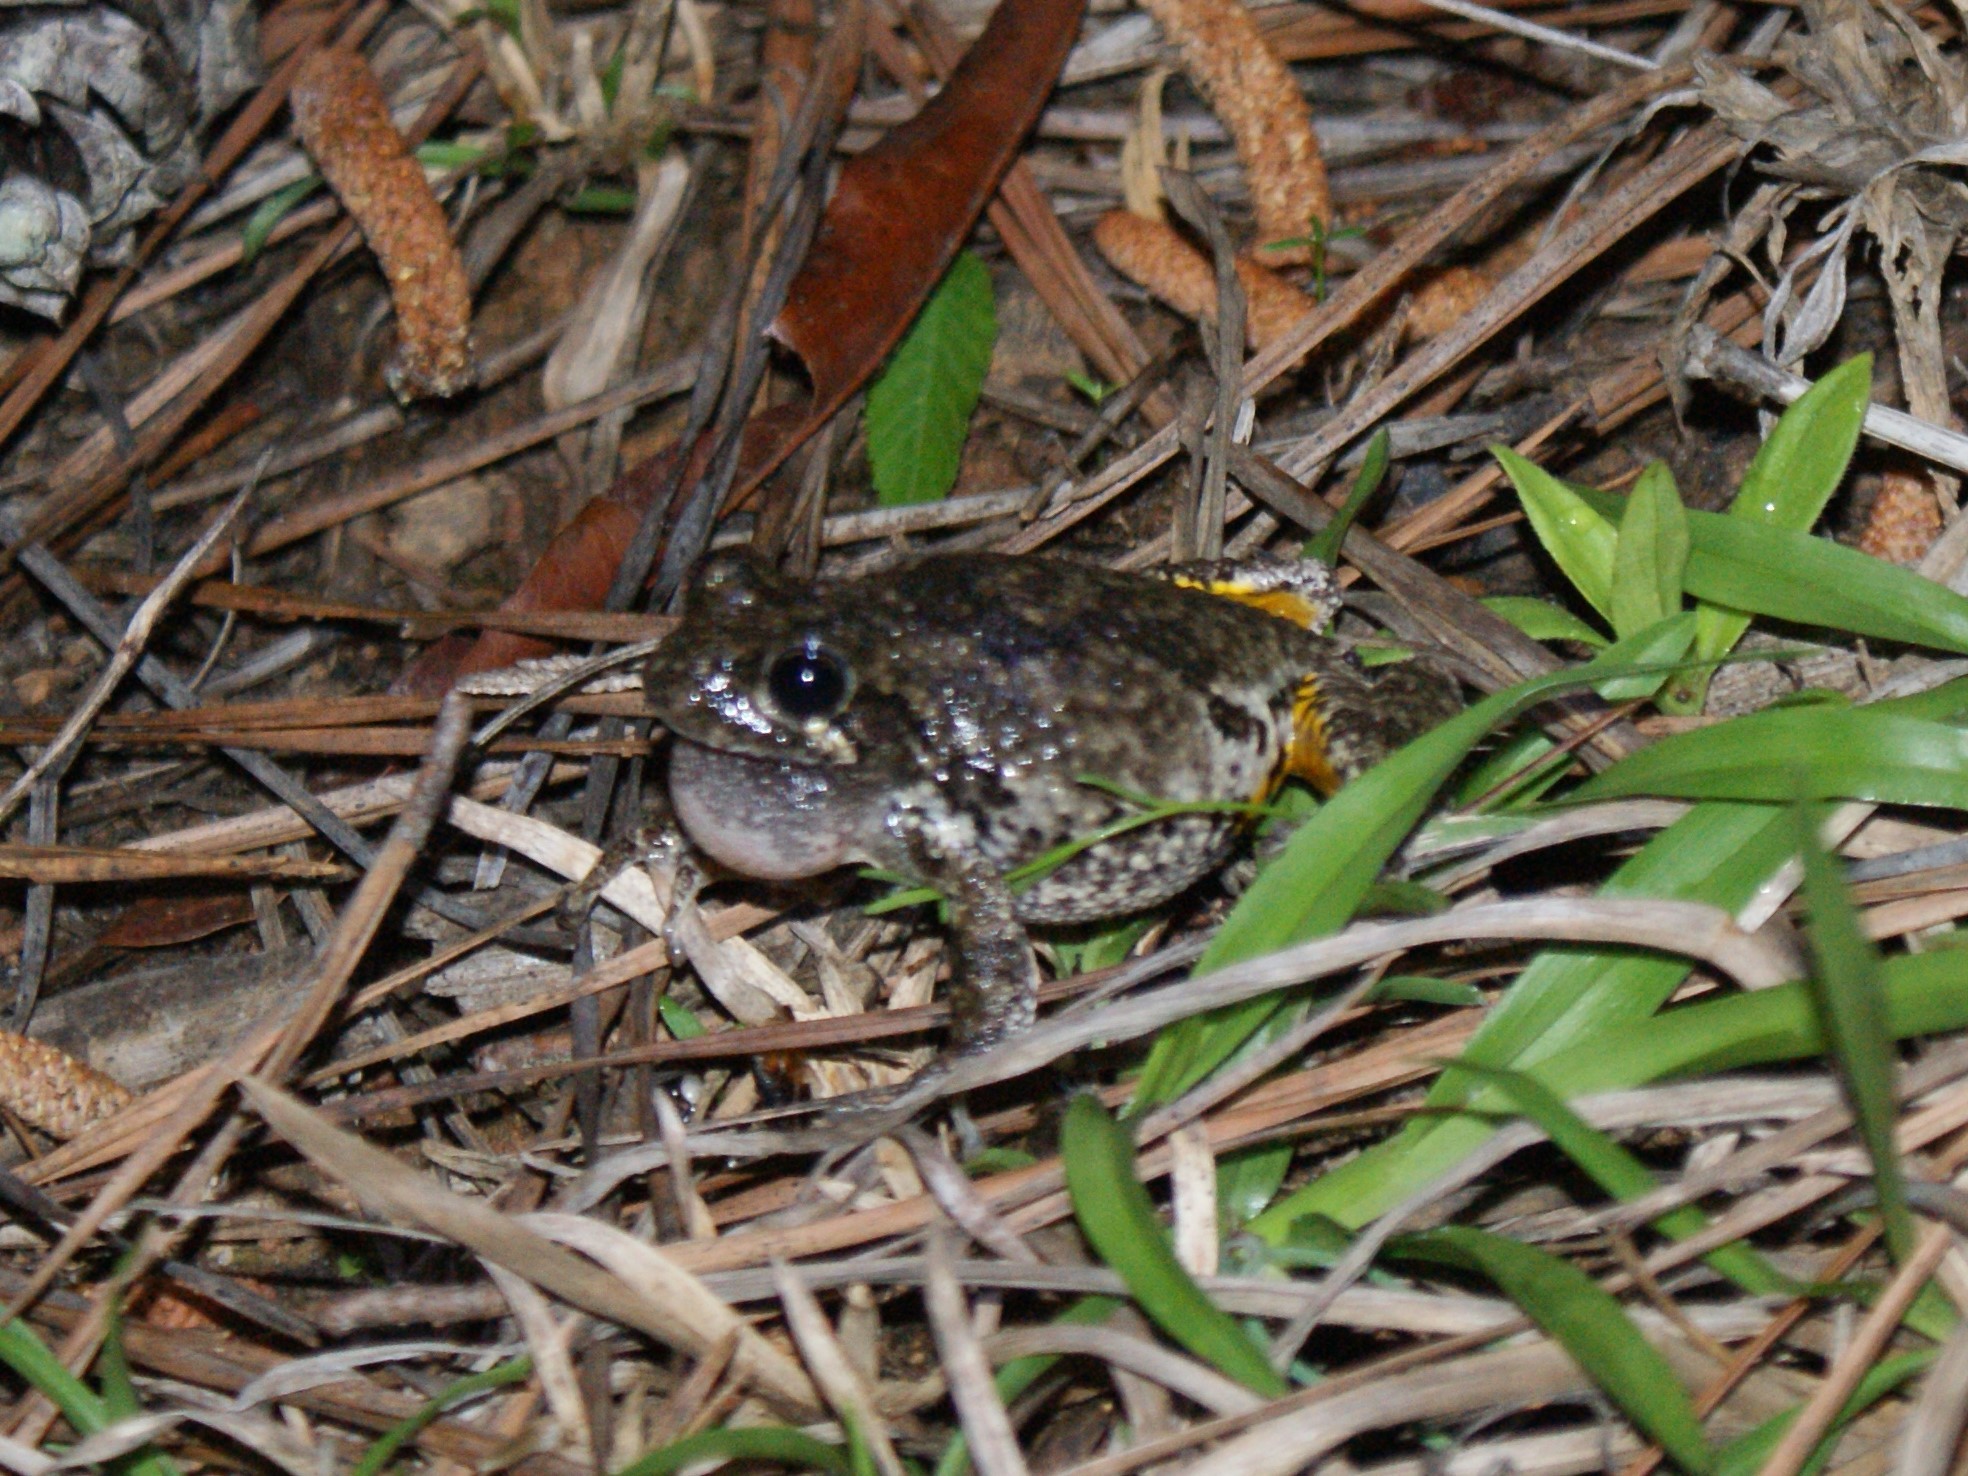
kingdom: Animalia
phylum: Chordata
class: Amphibia
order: Anura
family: Hylidae
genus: Dryophytes
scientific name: Dryophytes chrysoscelis
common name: Cope's gray treefrog
